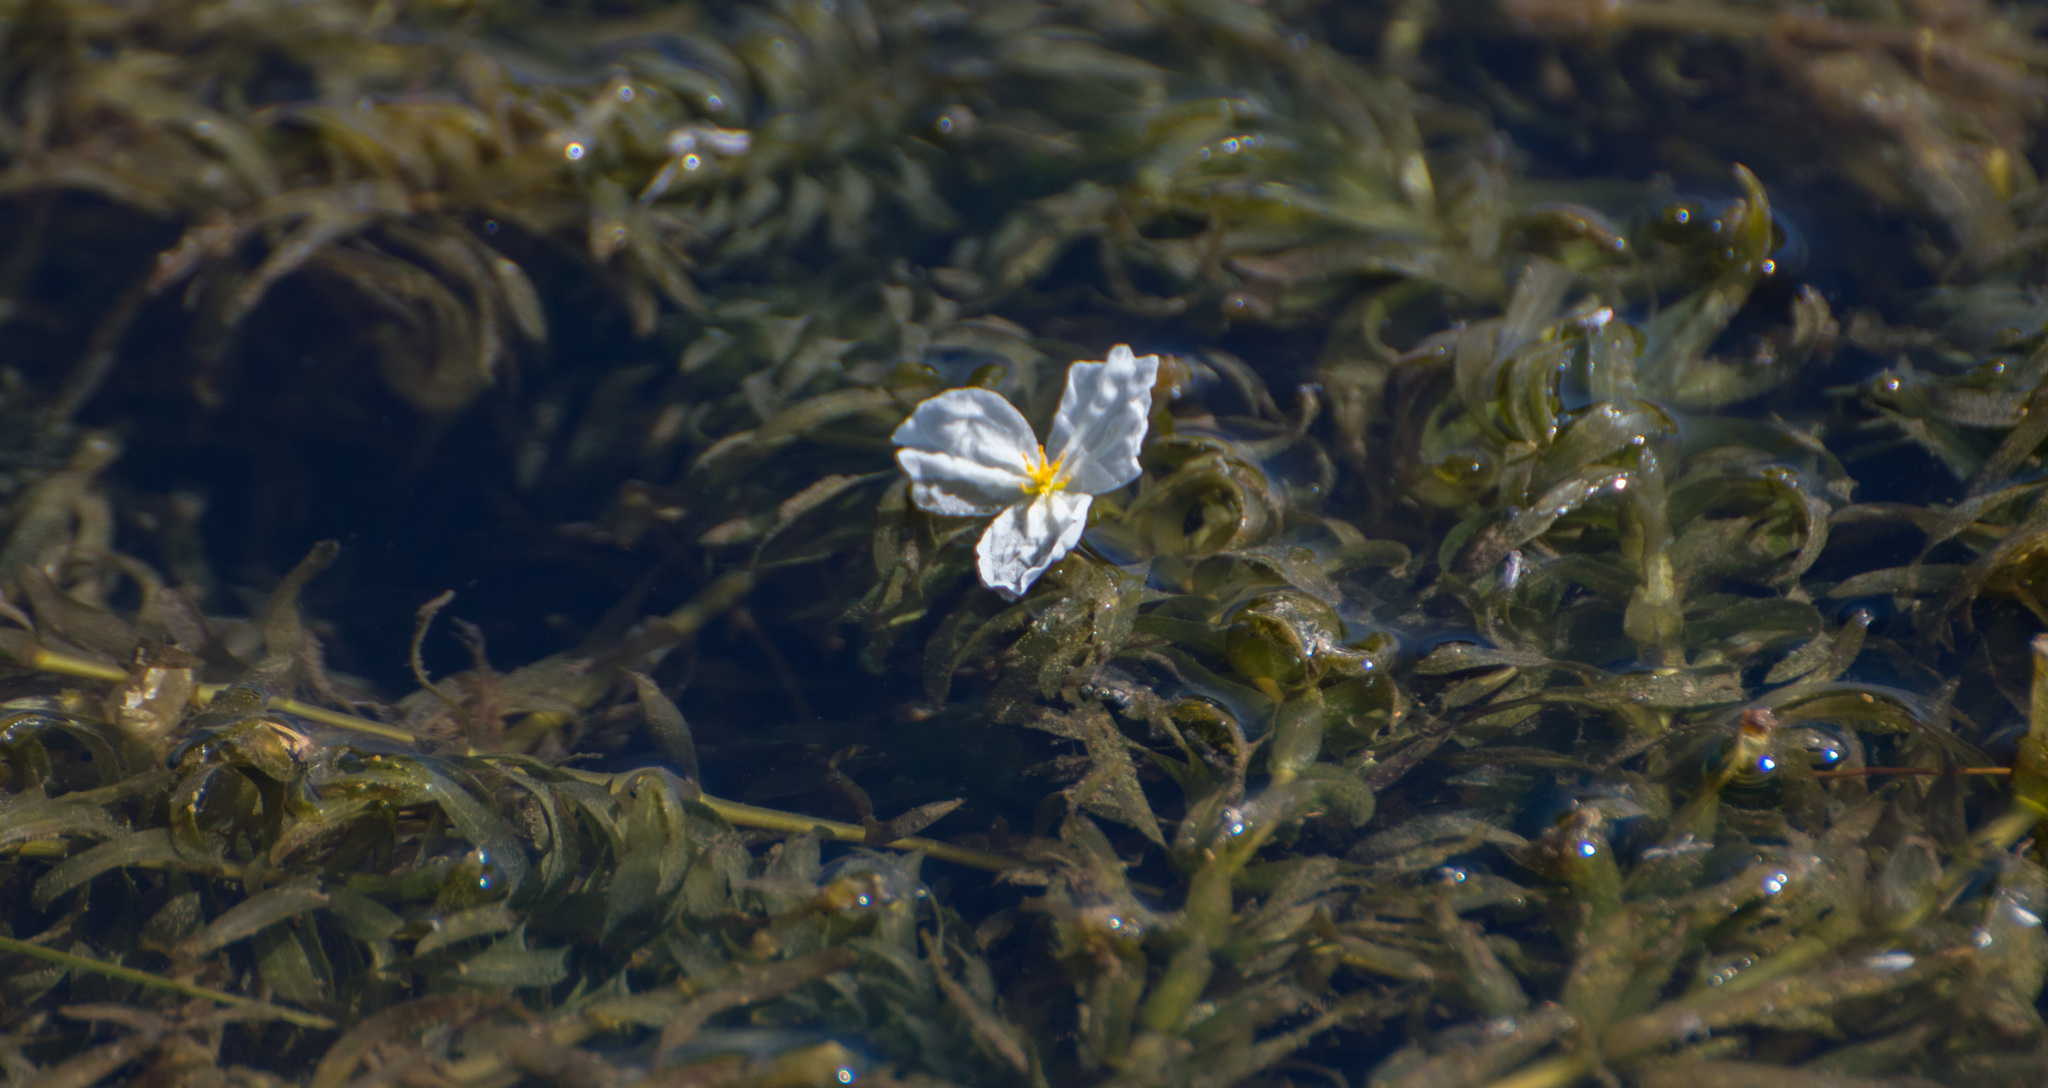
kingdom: Plantae
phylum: Tracheophyta
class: Liliopsida
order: Alismatales
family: Hydrocharitaceae
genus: Elodea
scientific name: Elodea densa
